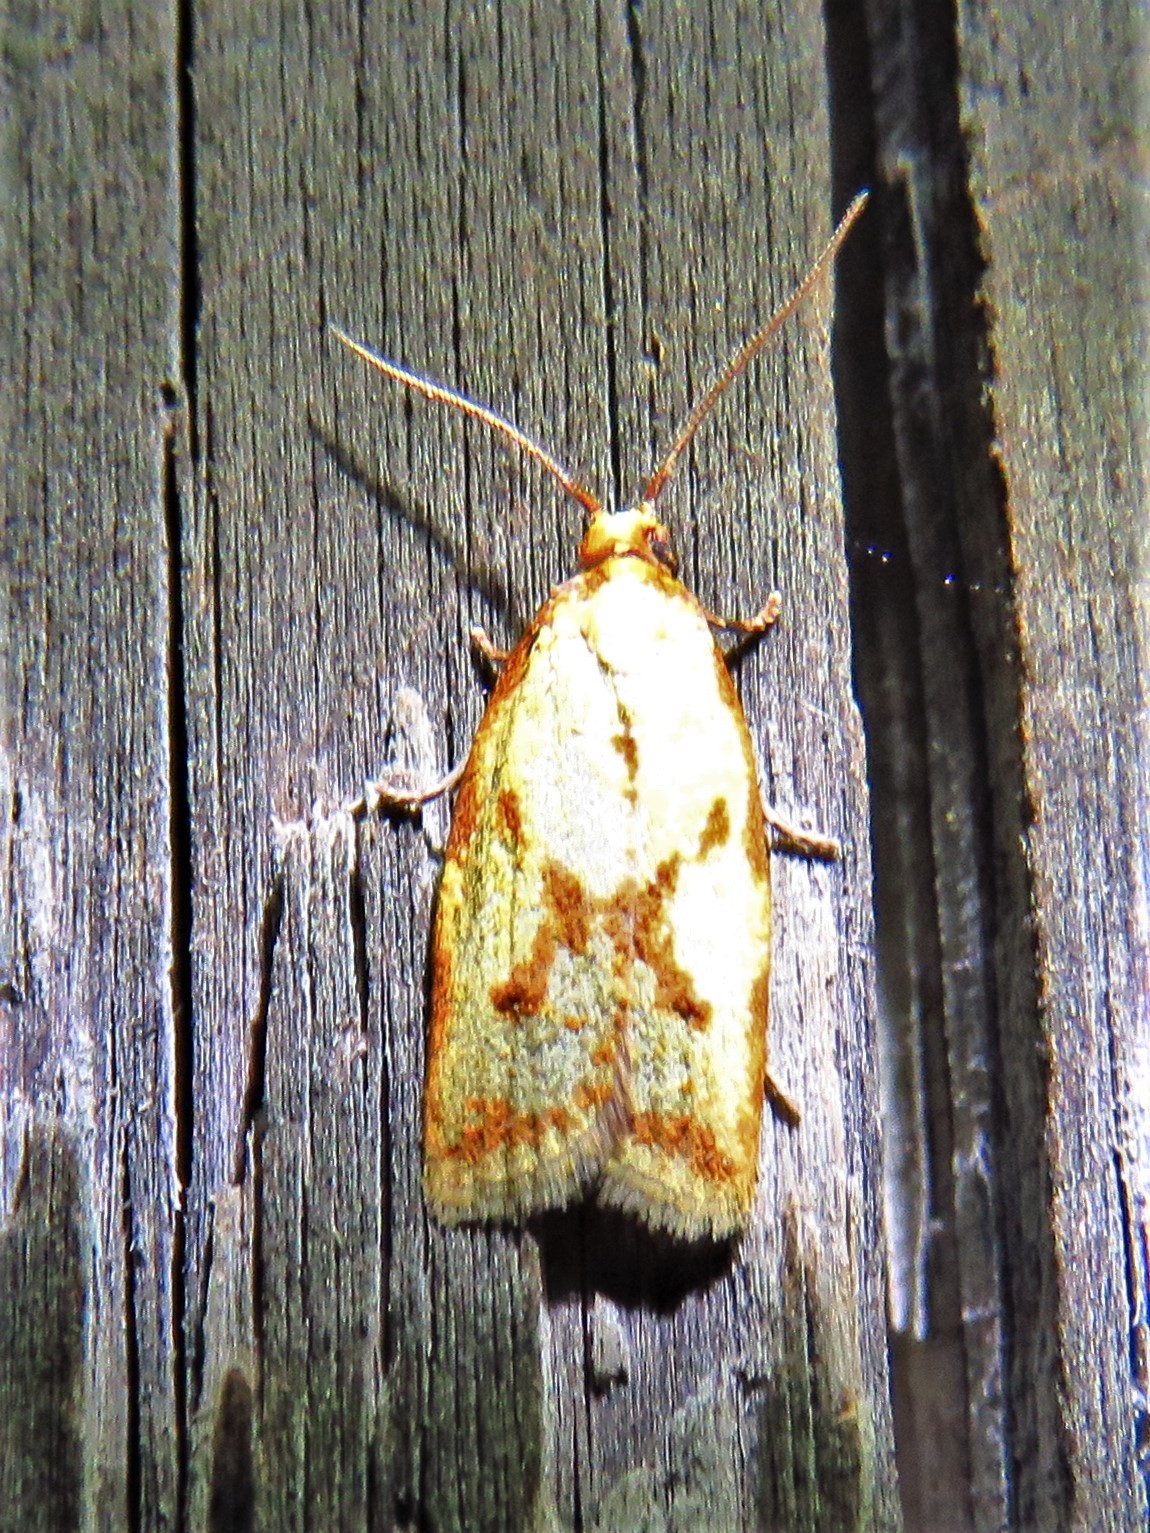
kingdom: Animalia
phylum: Arthropoda
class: Insecta
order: Lepidoptera
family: Tortricidae
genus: Sparganothis
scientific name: Sparganothis sulfureana
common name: Sparganothis fruitworm moth
